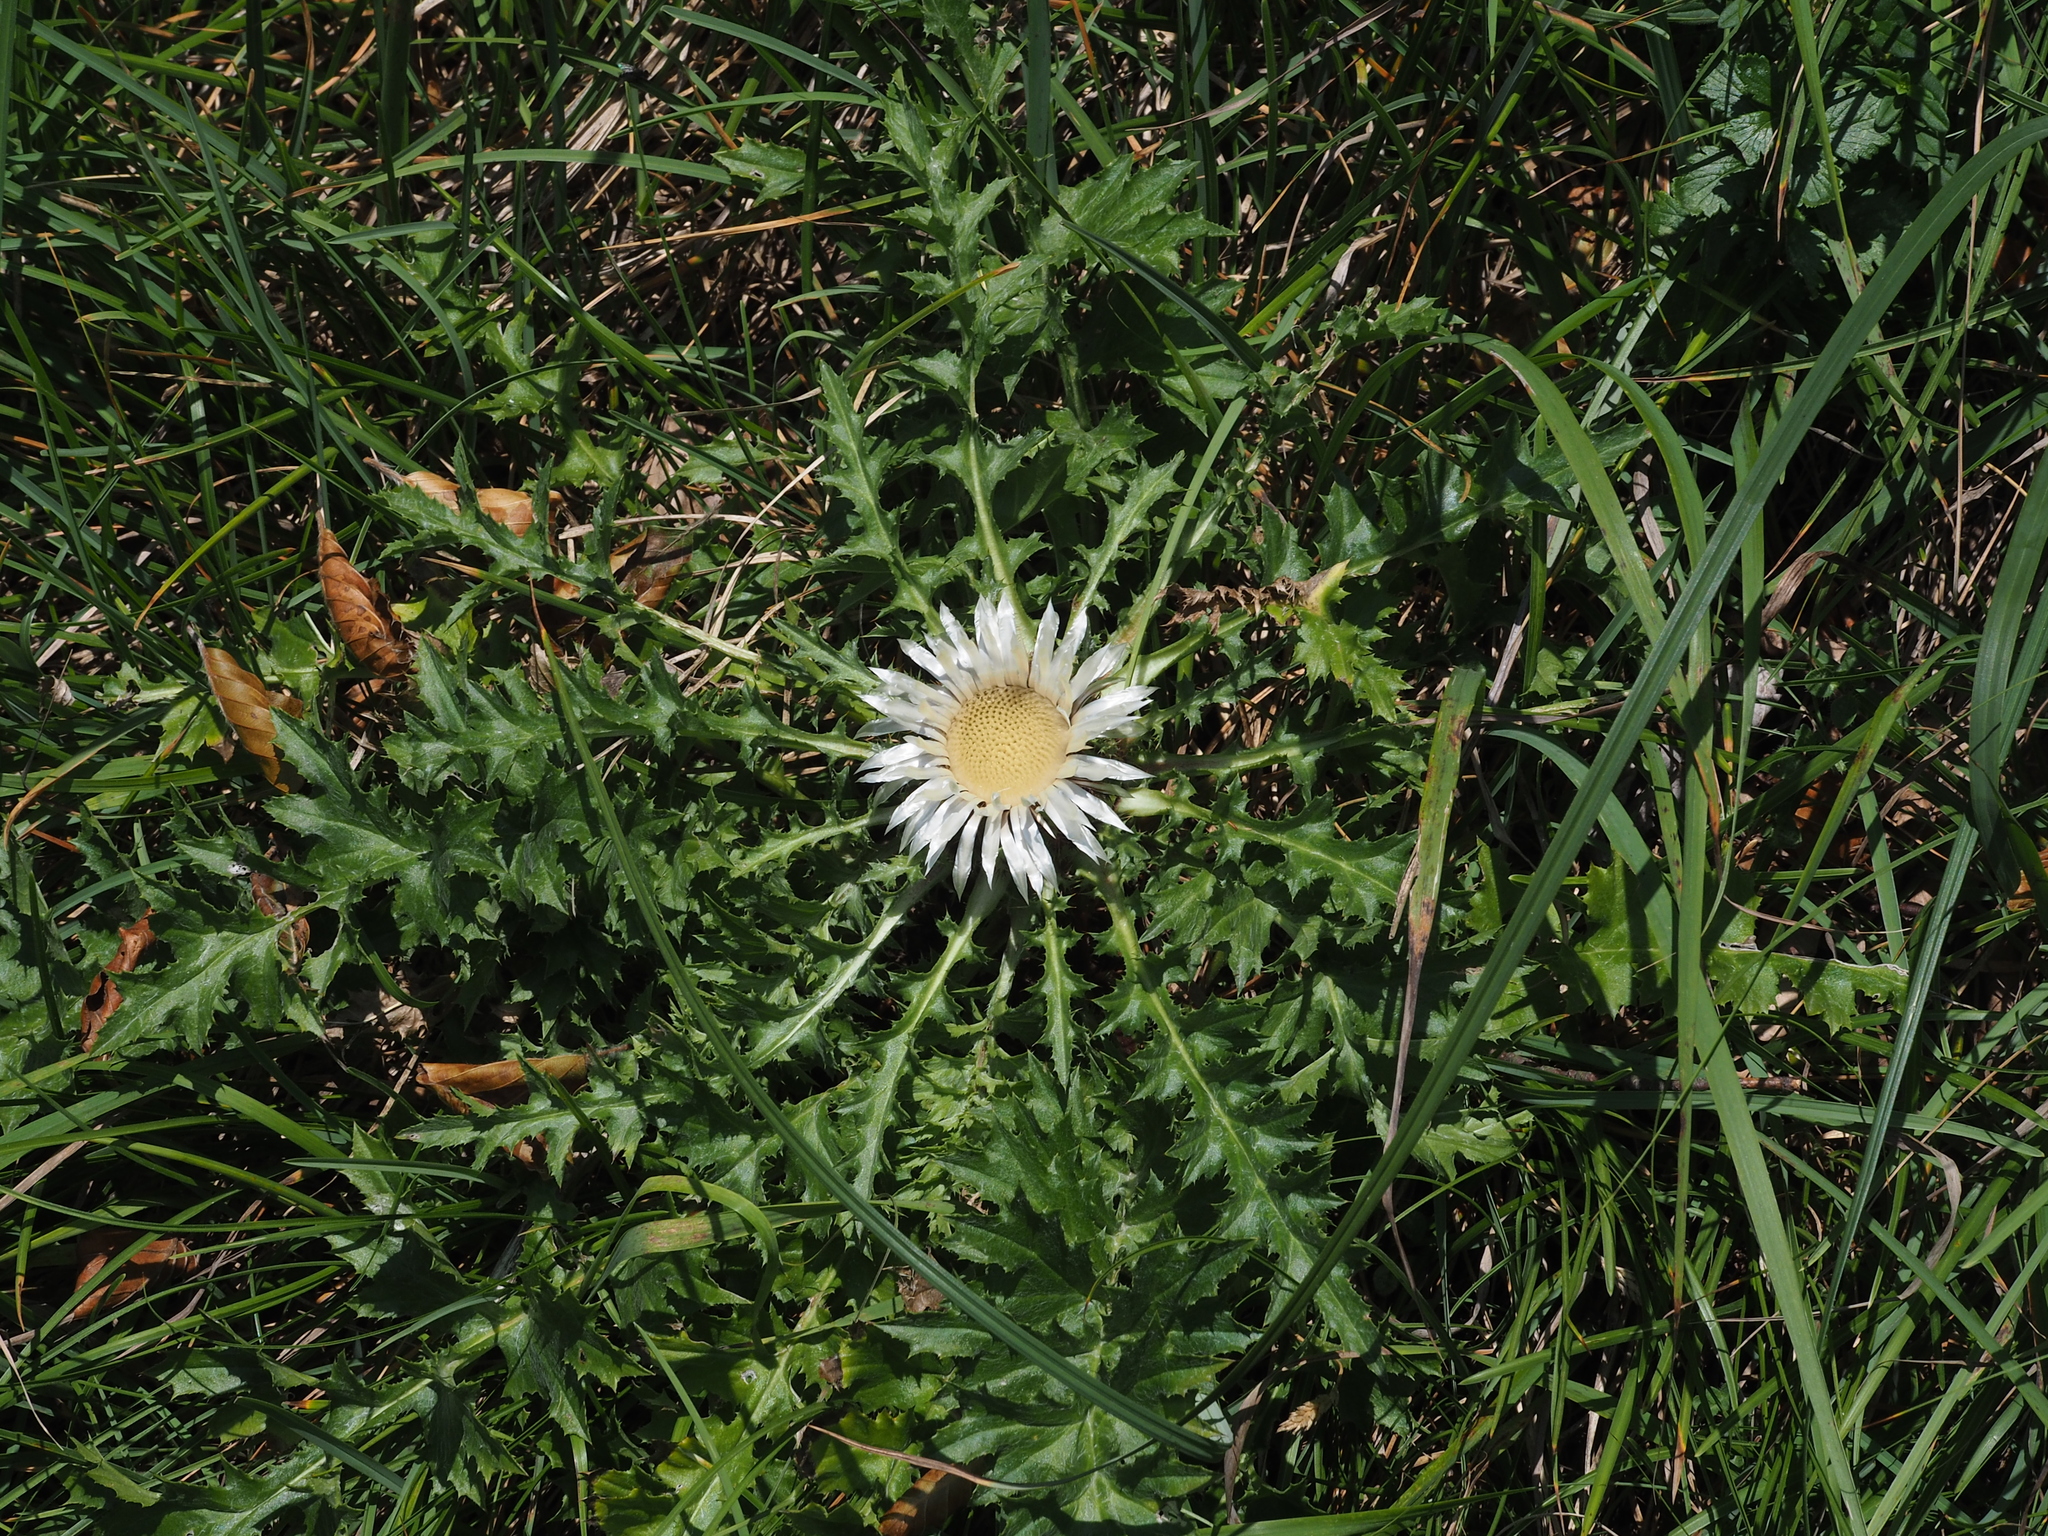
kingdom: Plantae
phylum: Tracheophyta
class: Magnoliopsida
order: Asterales
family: Asteraceae
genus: Carlina
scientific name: Carlina acaulis
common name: Stemless carline thistle
